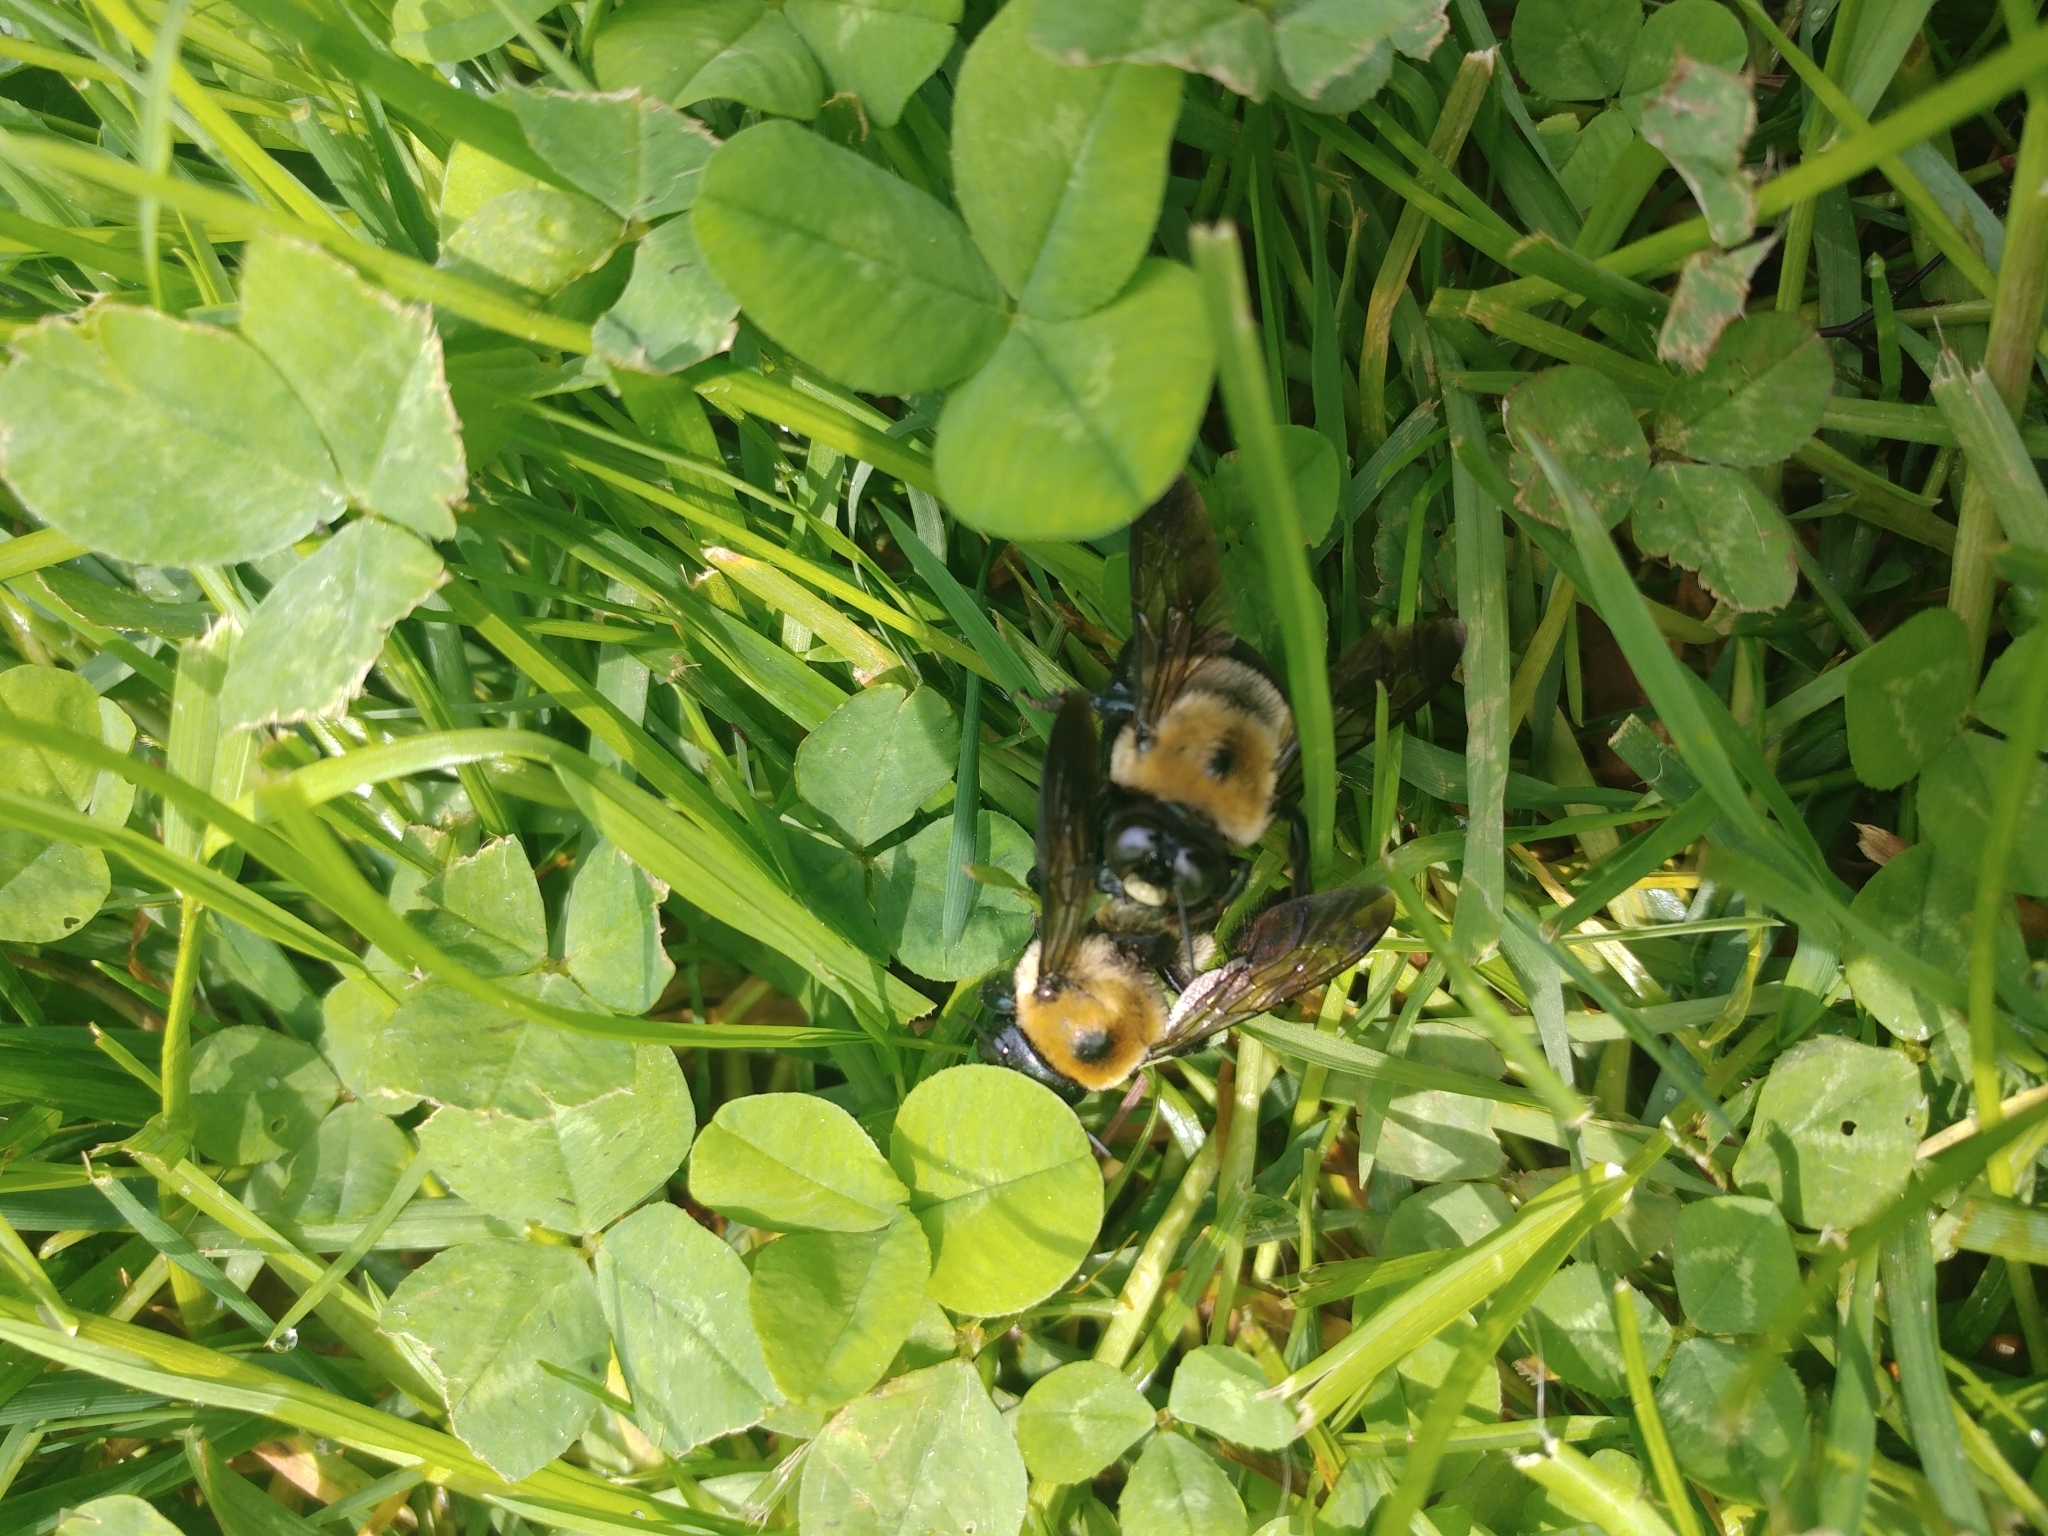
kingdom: Animalia
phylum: Arthropoda
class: Insecta
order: Hymenoptera
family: Apidae
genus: Xylocopa
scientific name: Xylocopa virginica
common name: Carpenter bee
